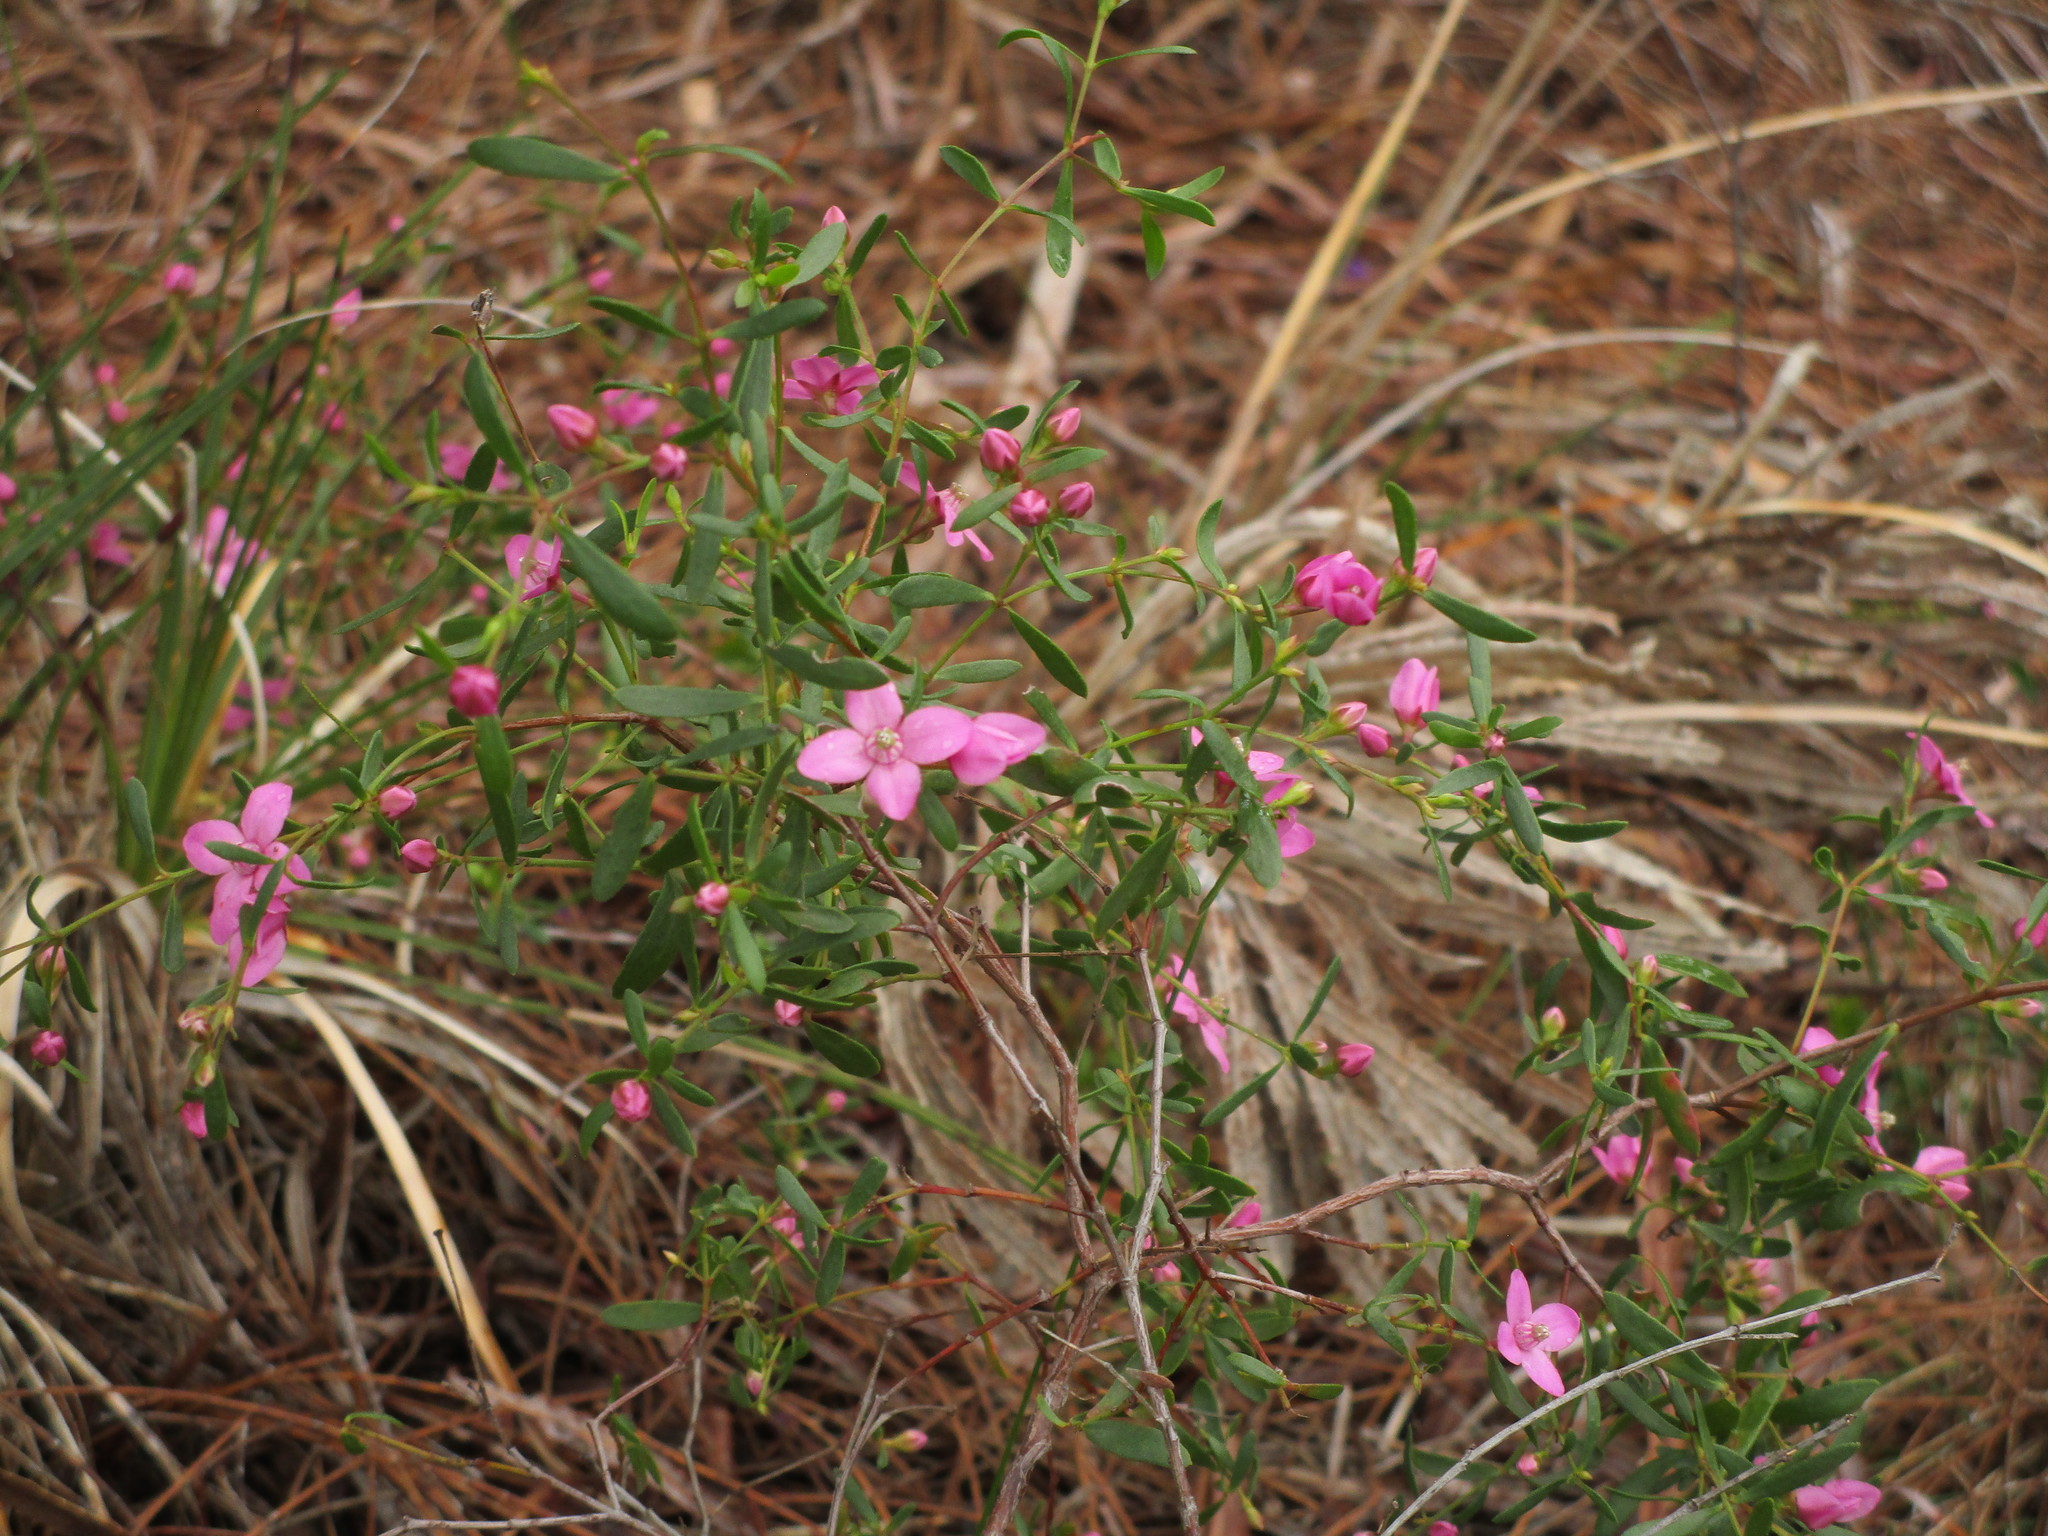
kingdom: Plantae
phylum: Tracheophyta
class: Magnoliopsida
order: Sapindales
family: Rutaceae
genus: Boronia
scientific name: Boronia crenulata
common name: Aniseed boronia
